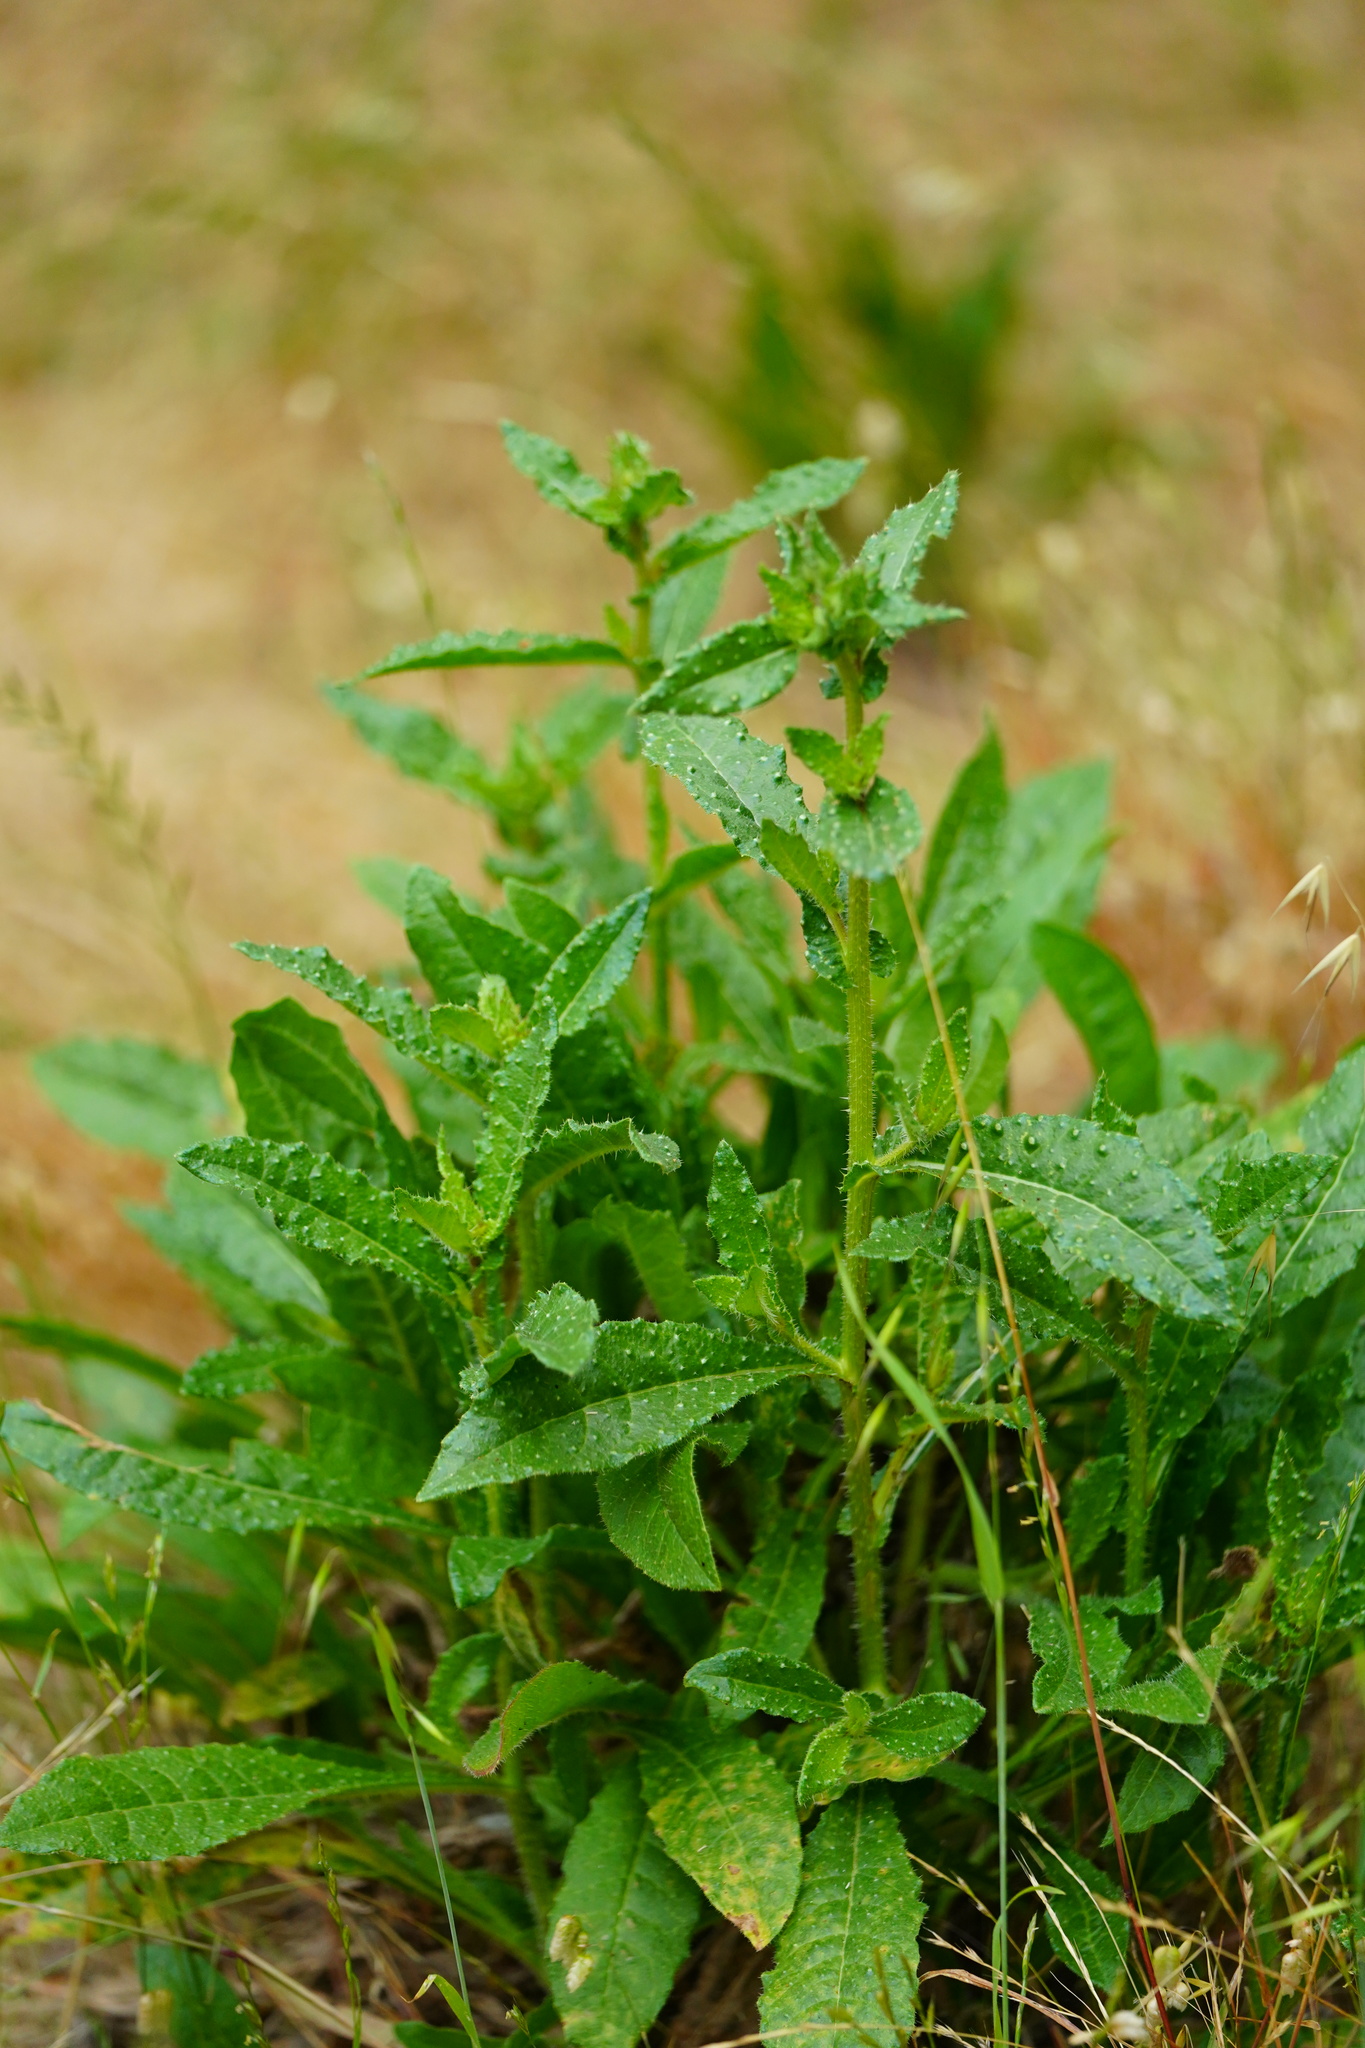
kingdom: Plantae
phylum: Tracheophyta
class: Magnoliopsida
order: Asterales
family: Asteraceae
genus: Helminthotheca
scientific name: Helminthotheca echioides
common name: Ox-tongue
